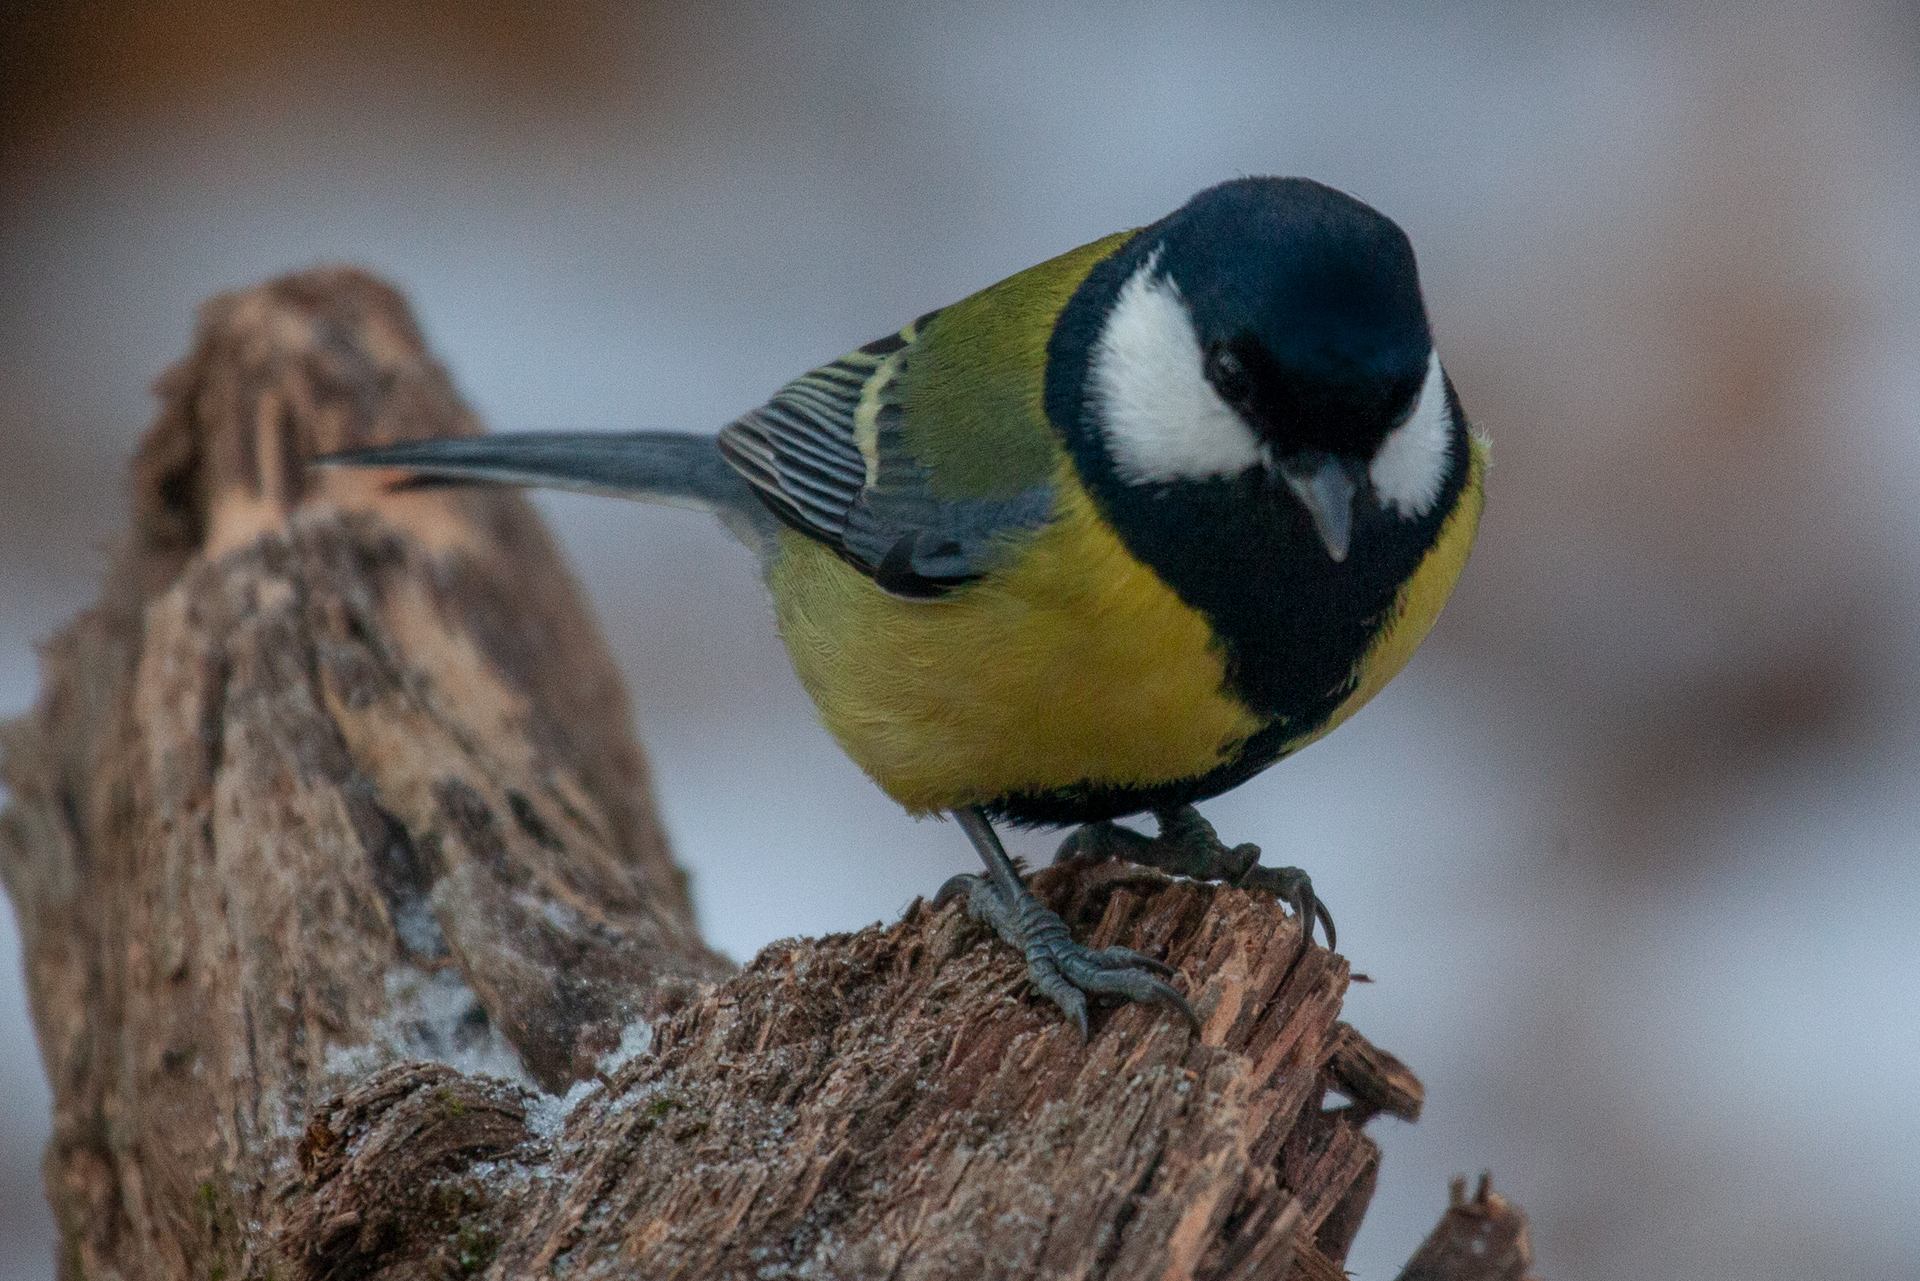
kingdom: Animalia
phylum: Chordata
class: Aves
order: Passeriformes
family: Paridae
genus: Parus
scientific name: Parus major
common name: Great tit
